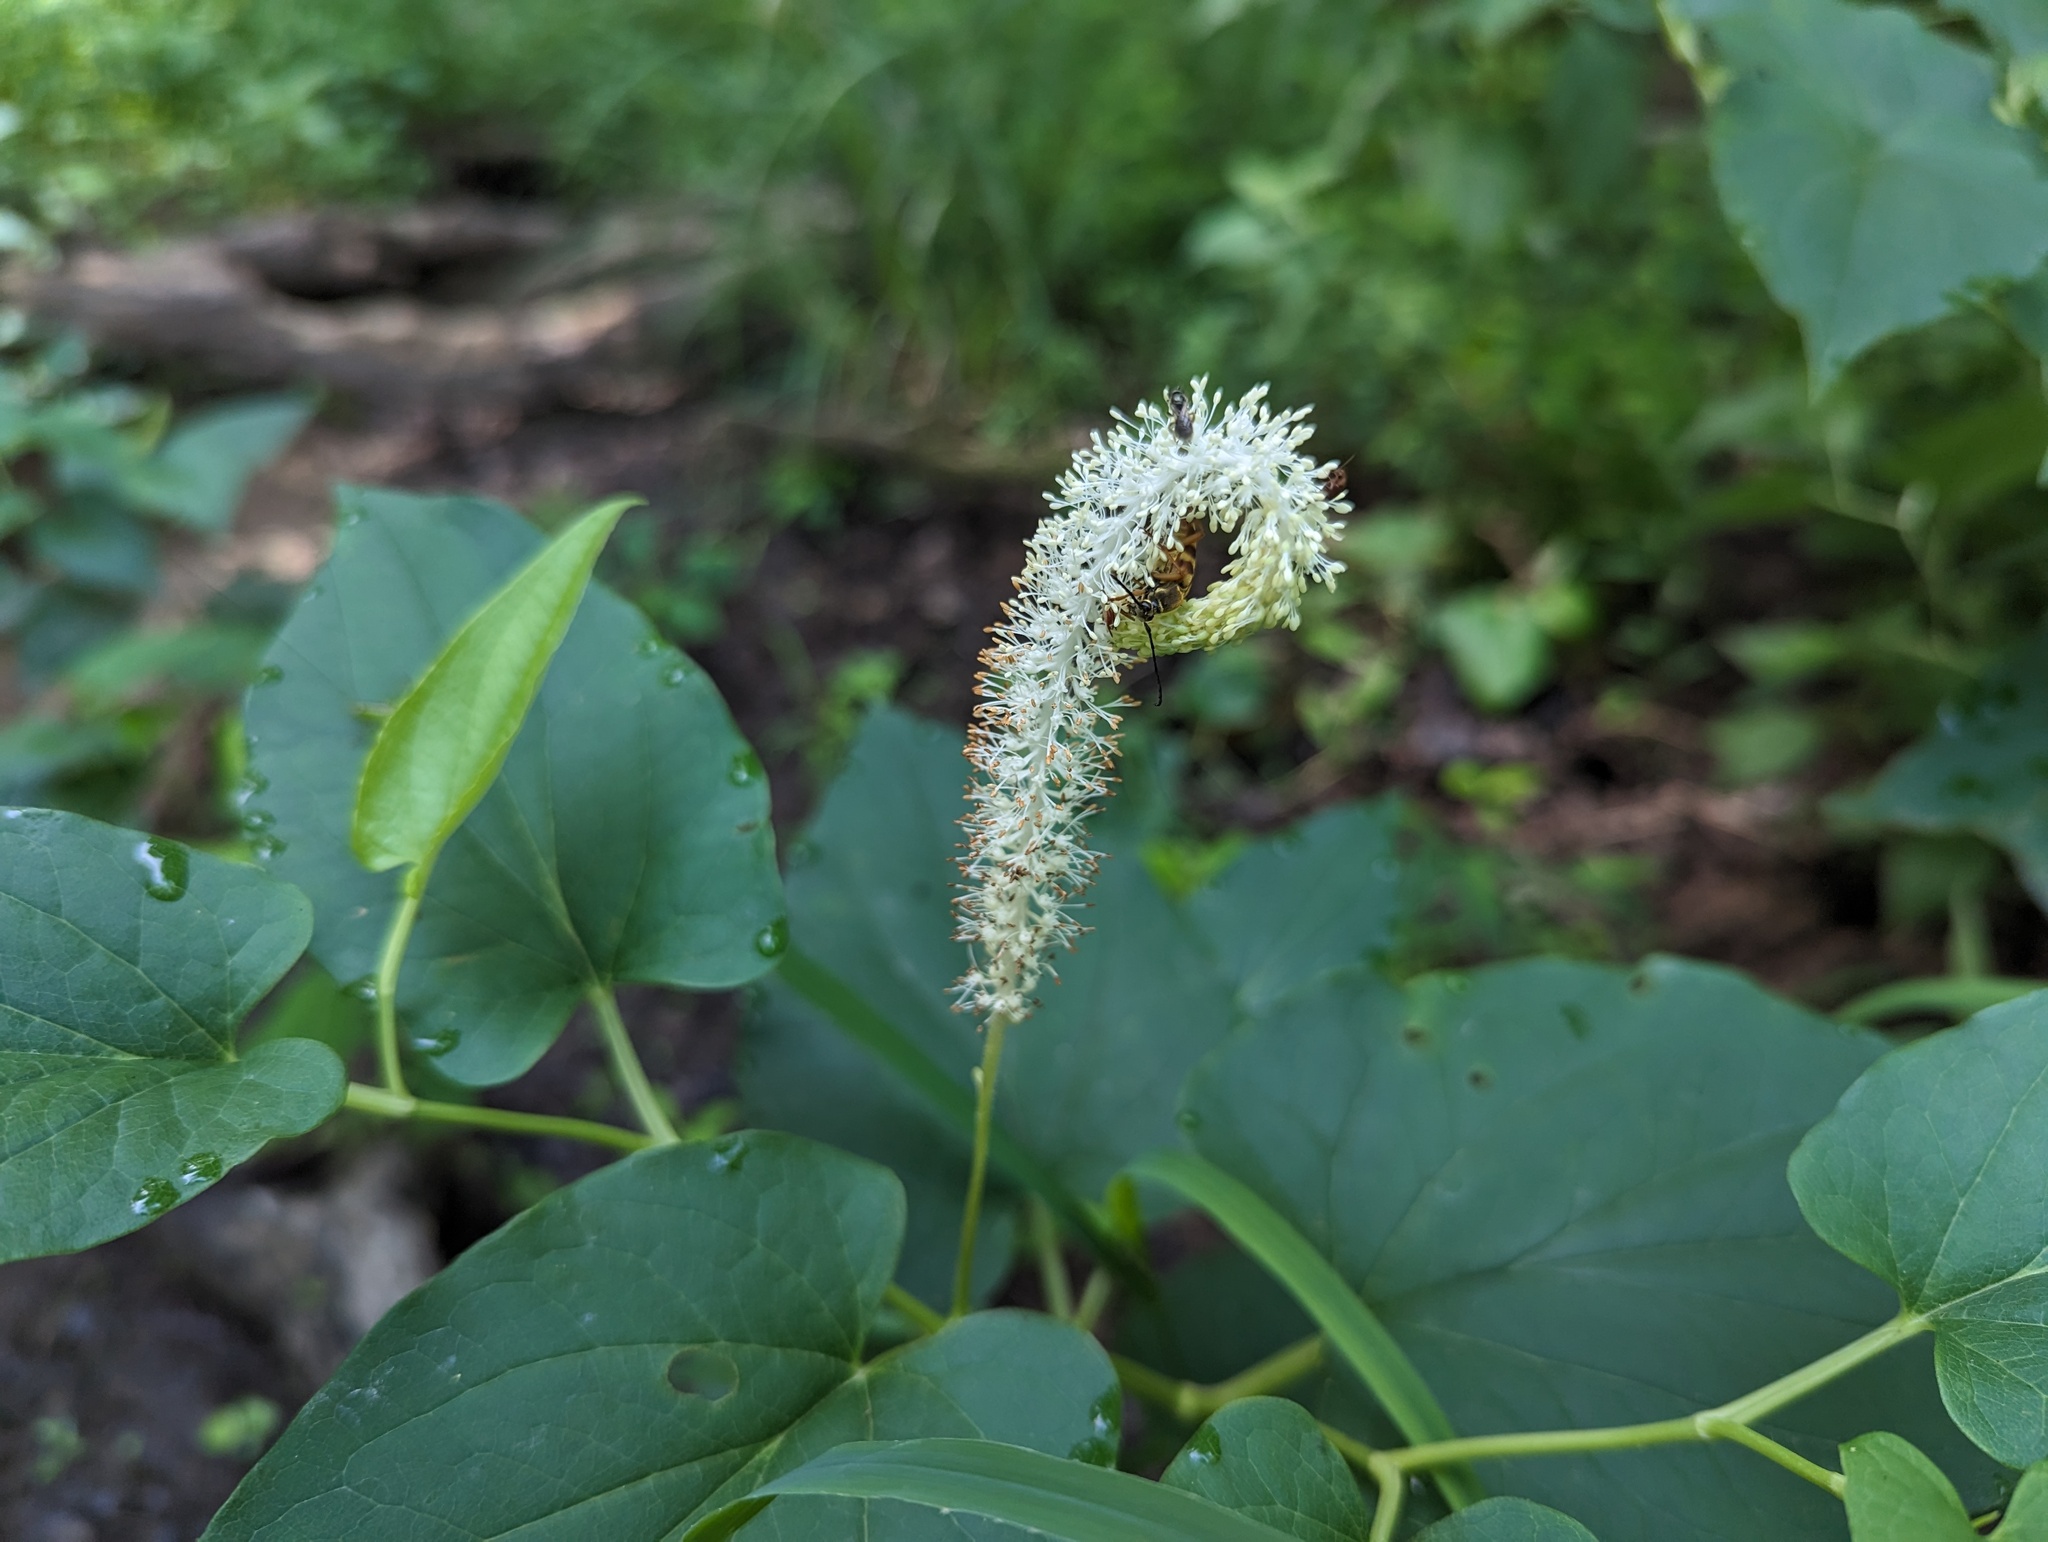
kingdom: Plantae
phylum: Tracheophyta
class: Magnoliopsida
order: Piperales
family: Saururaceae
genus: Saururus
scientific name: Saururus cernuus
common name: Lizard's-tail
